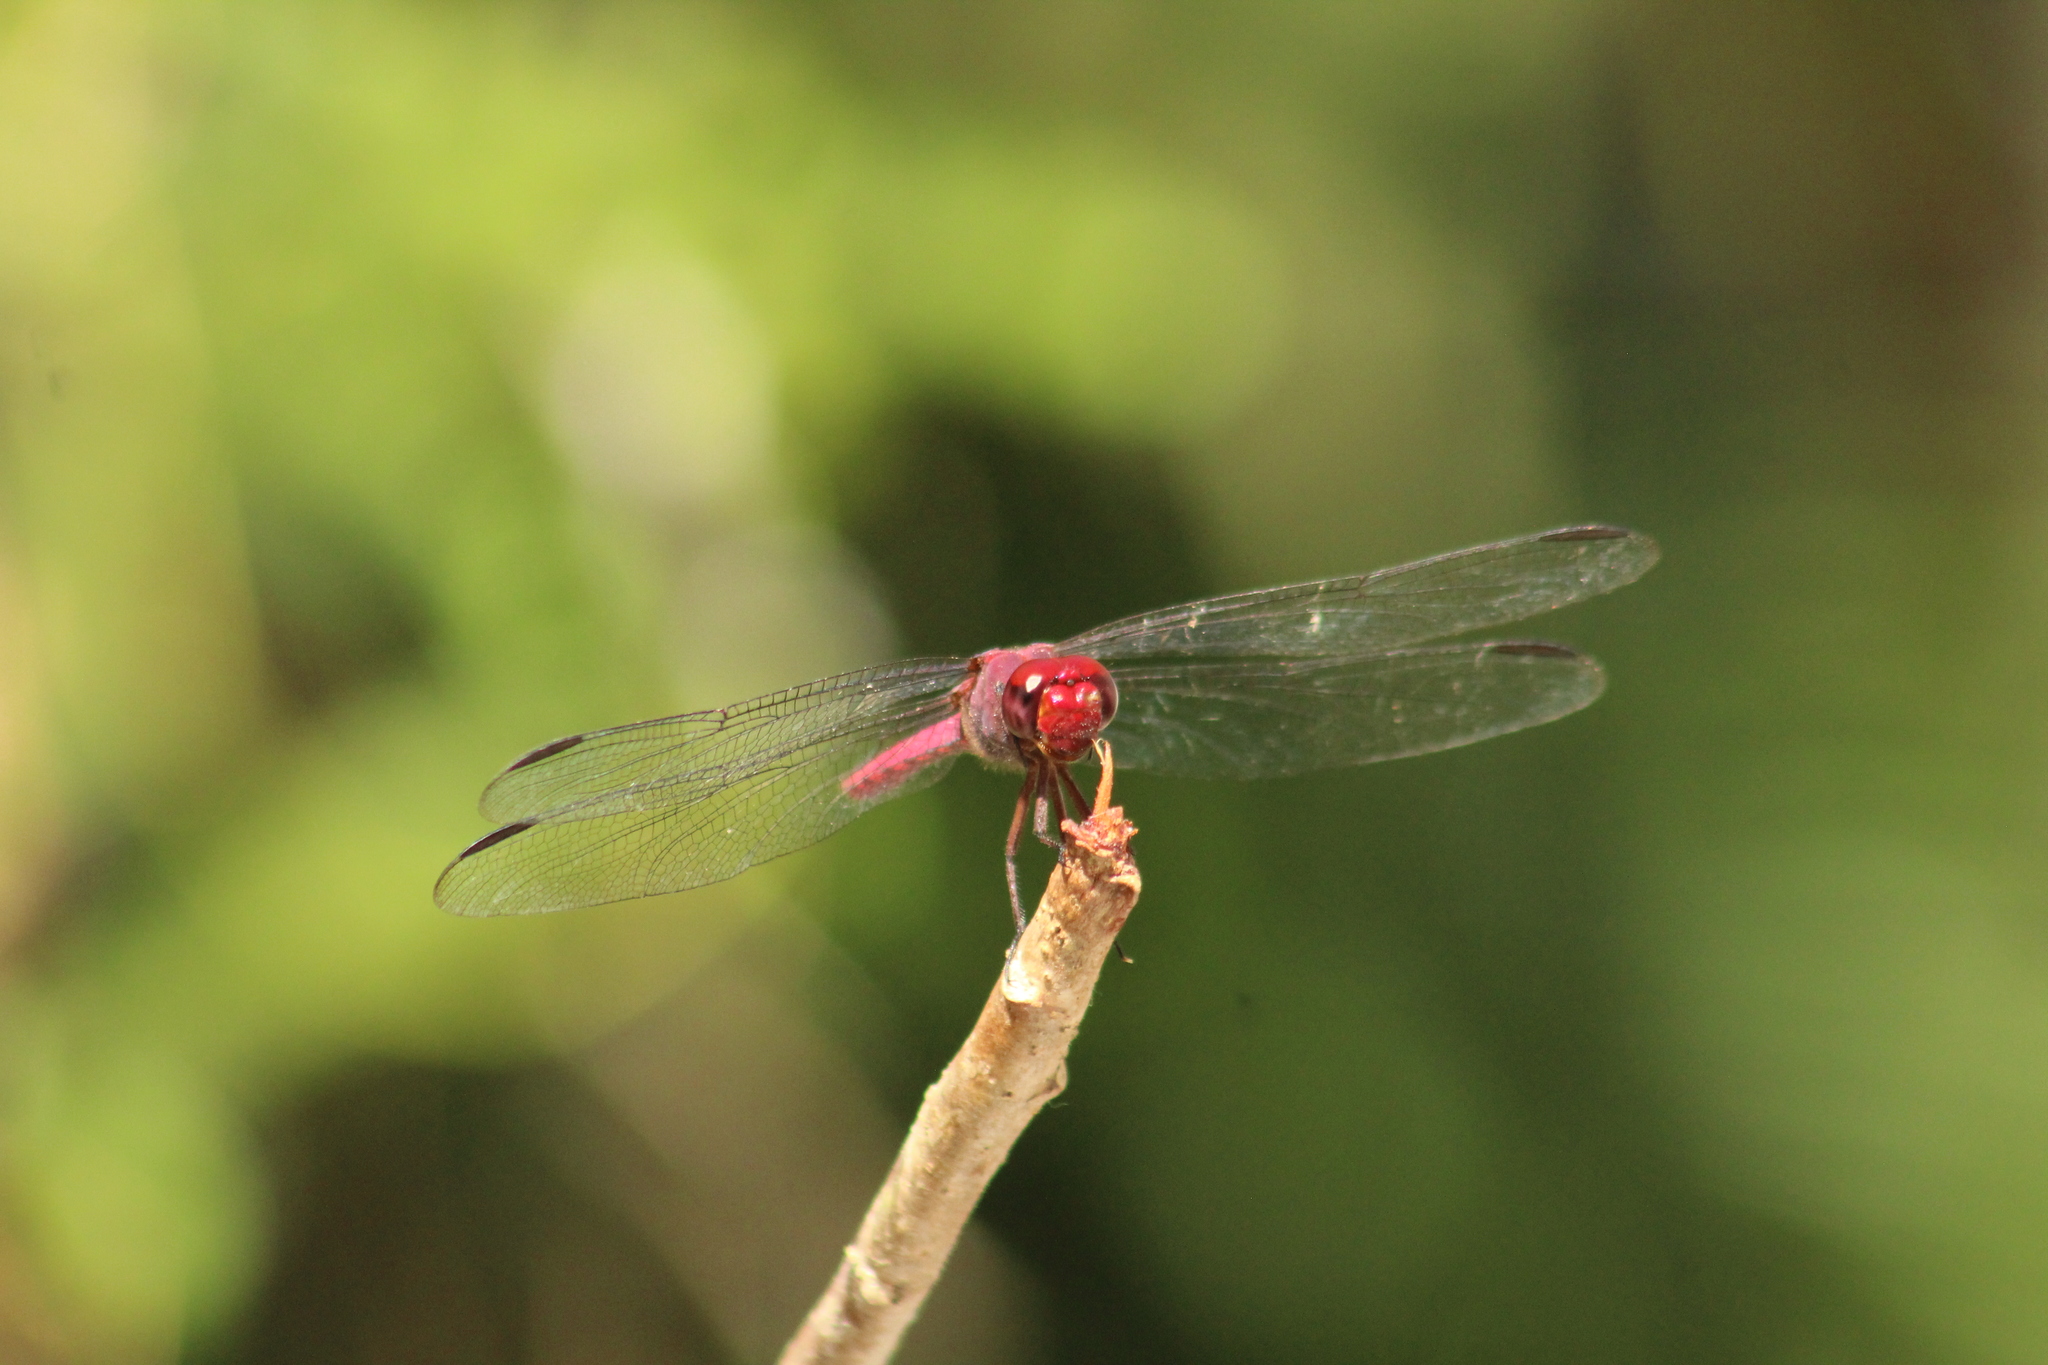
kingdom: Animalia
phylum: Arthropoda
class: Insecta
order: Odonata
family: Libellulidae
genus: Orthemis
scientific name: Orthemis macrostigma
